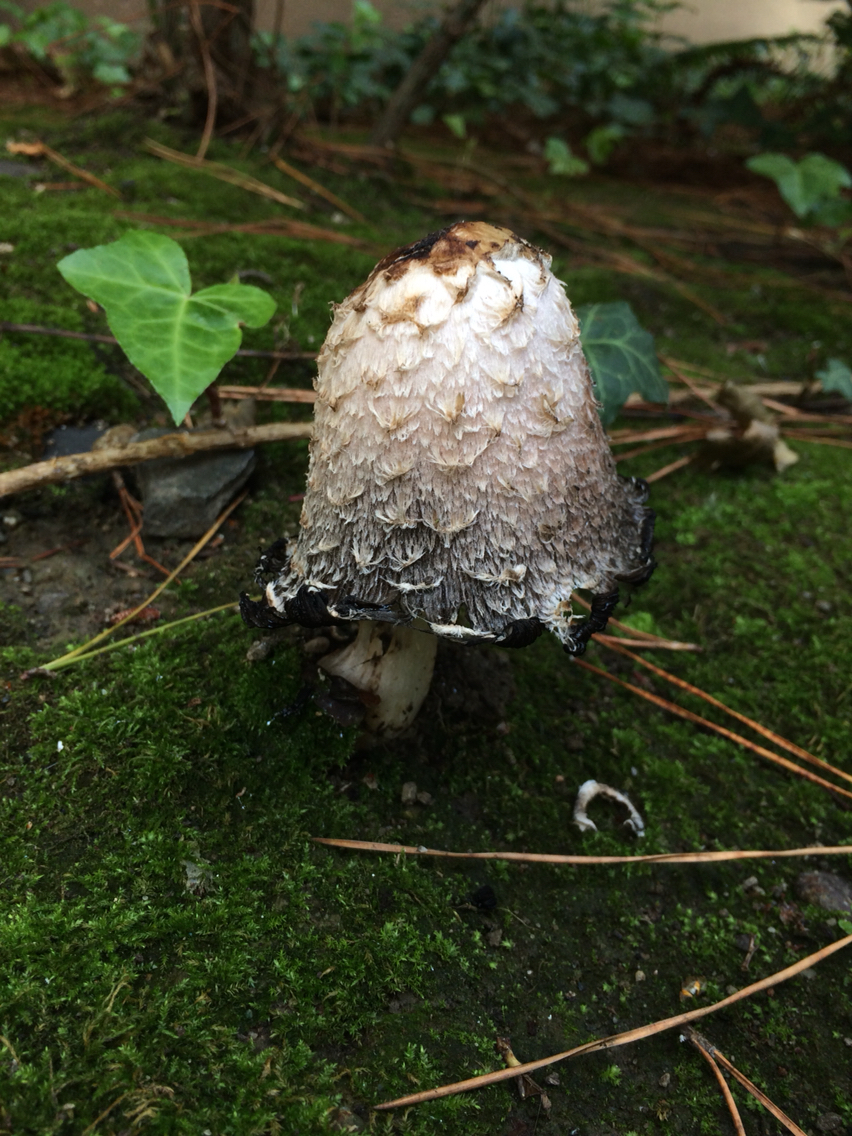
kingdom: Fungi
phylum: Basidiomycota
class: Agaricomycetes
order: Agaricales
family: Agaricaceae
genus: Coprinus
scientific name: Coprinus comatus
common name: Lawyer's wig
